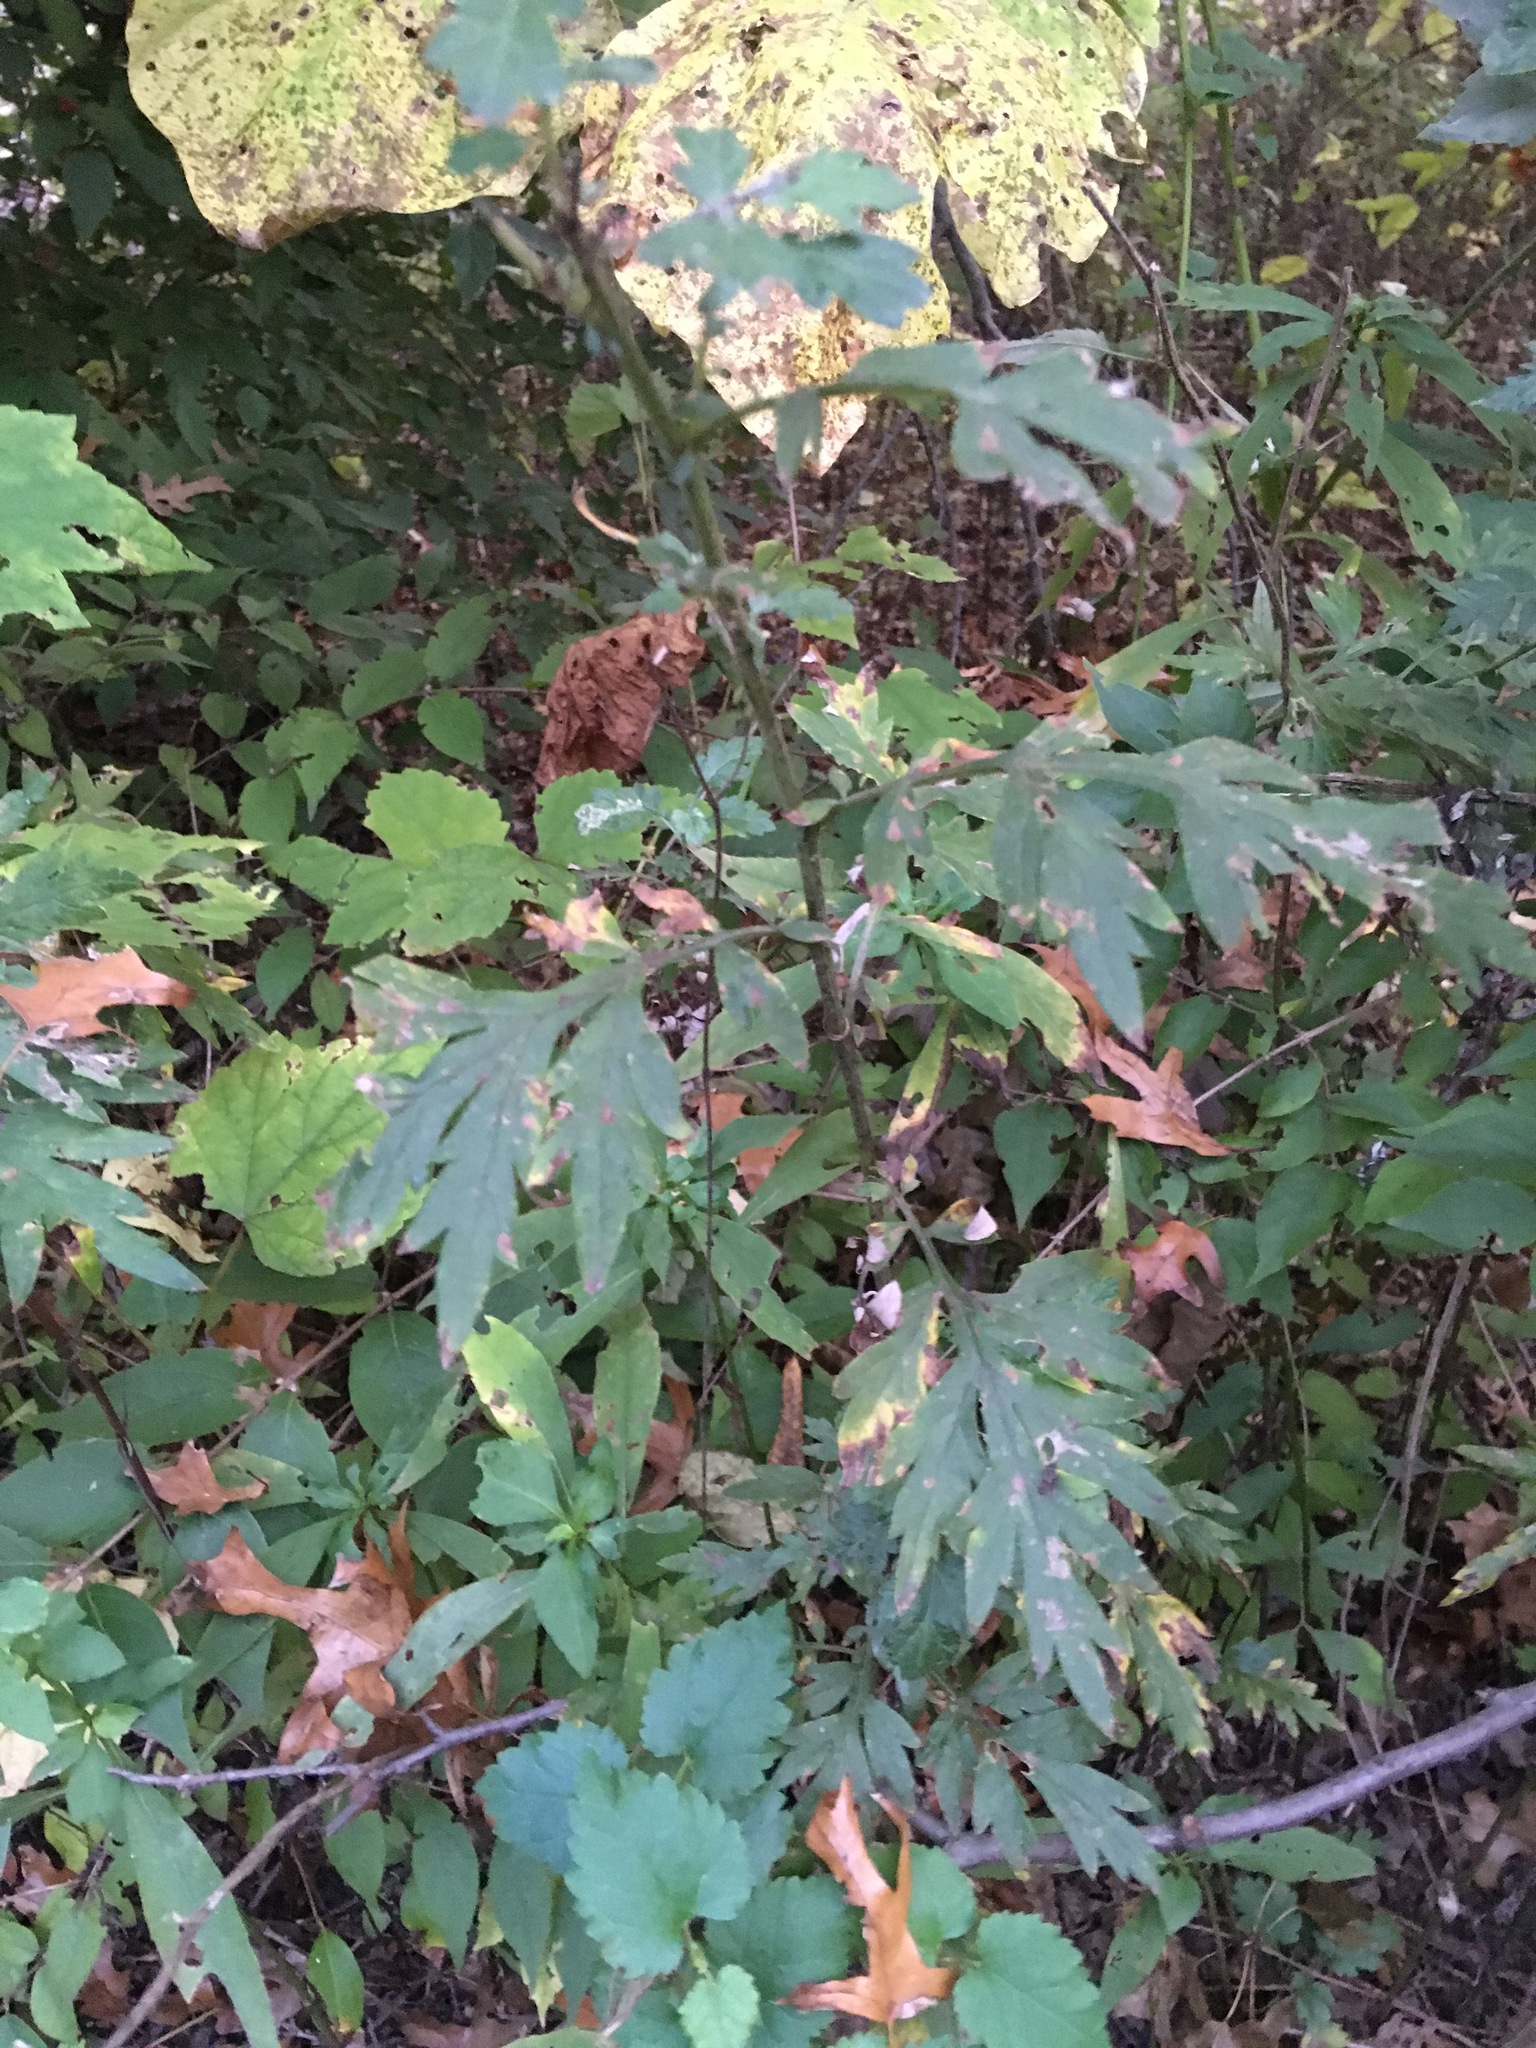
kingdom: Plantae
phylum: Tracheophyta
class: Magnoliopsida
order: Asterales
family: Asteraceae
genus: Artemisia
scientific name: Artemisia vulgaris
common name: Mugwort
